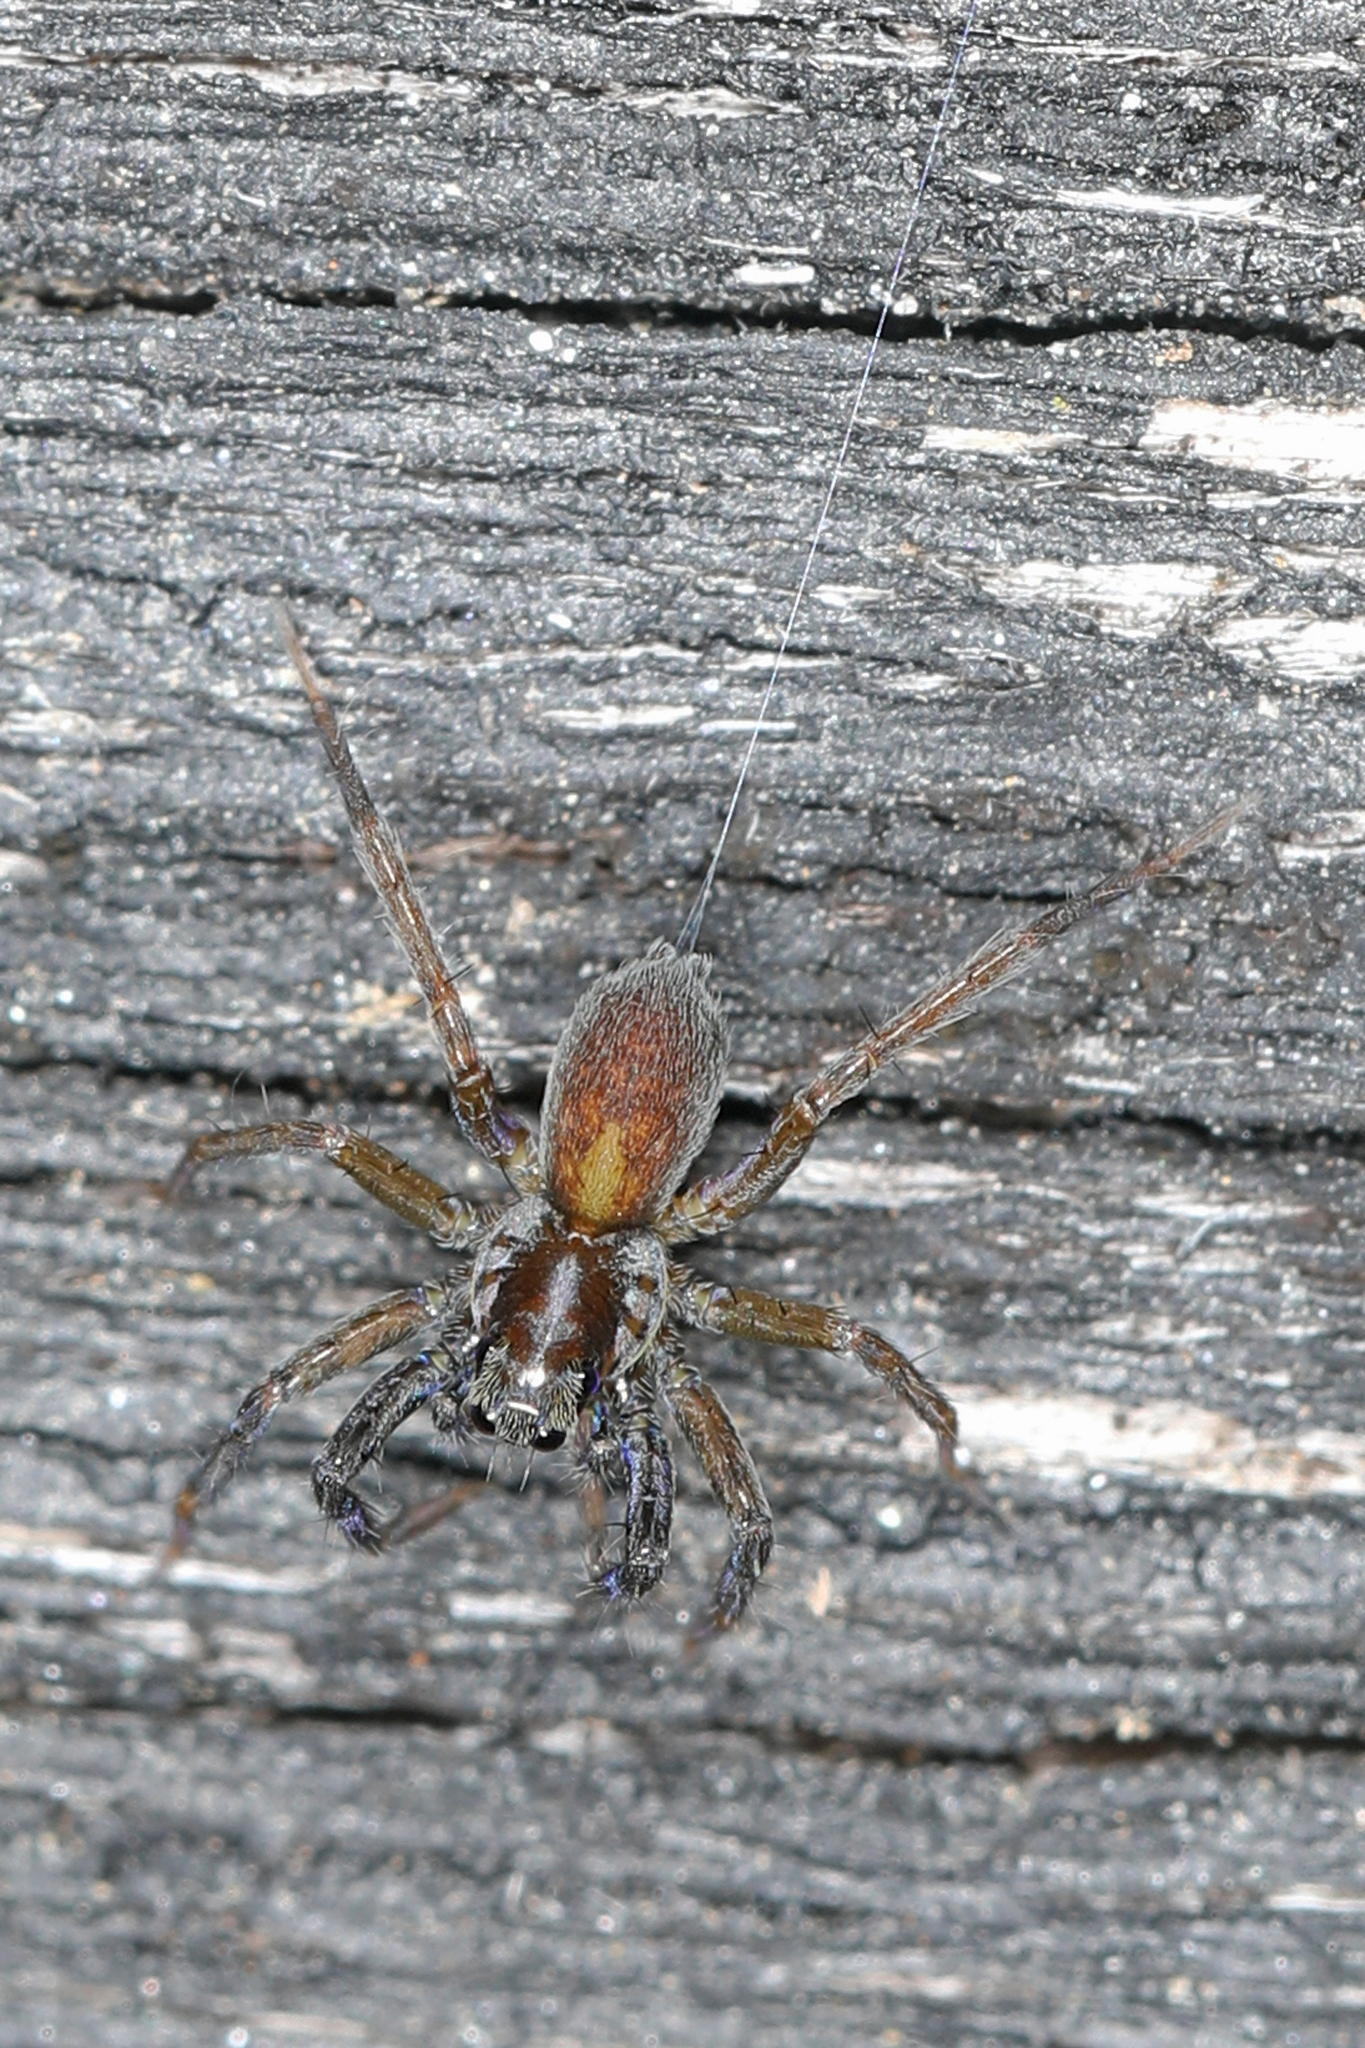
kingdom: Animalia
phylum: Arthropoda
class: Arachnida
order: Araneae
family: Lycosidae
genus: Trabeops
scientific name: Trabeops aurantiacus
